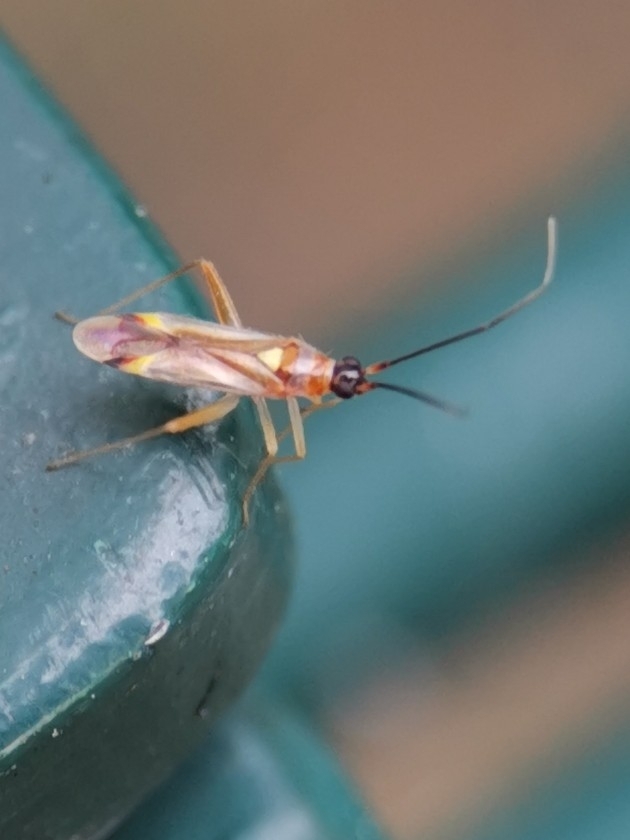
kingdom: Animalia
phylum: Arthropoda
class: Insecta
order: Hemiptera
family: Miridae
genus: Campyloneura
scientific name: Campyloneura virgula
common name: Predatory bug
